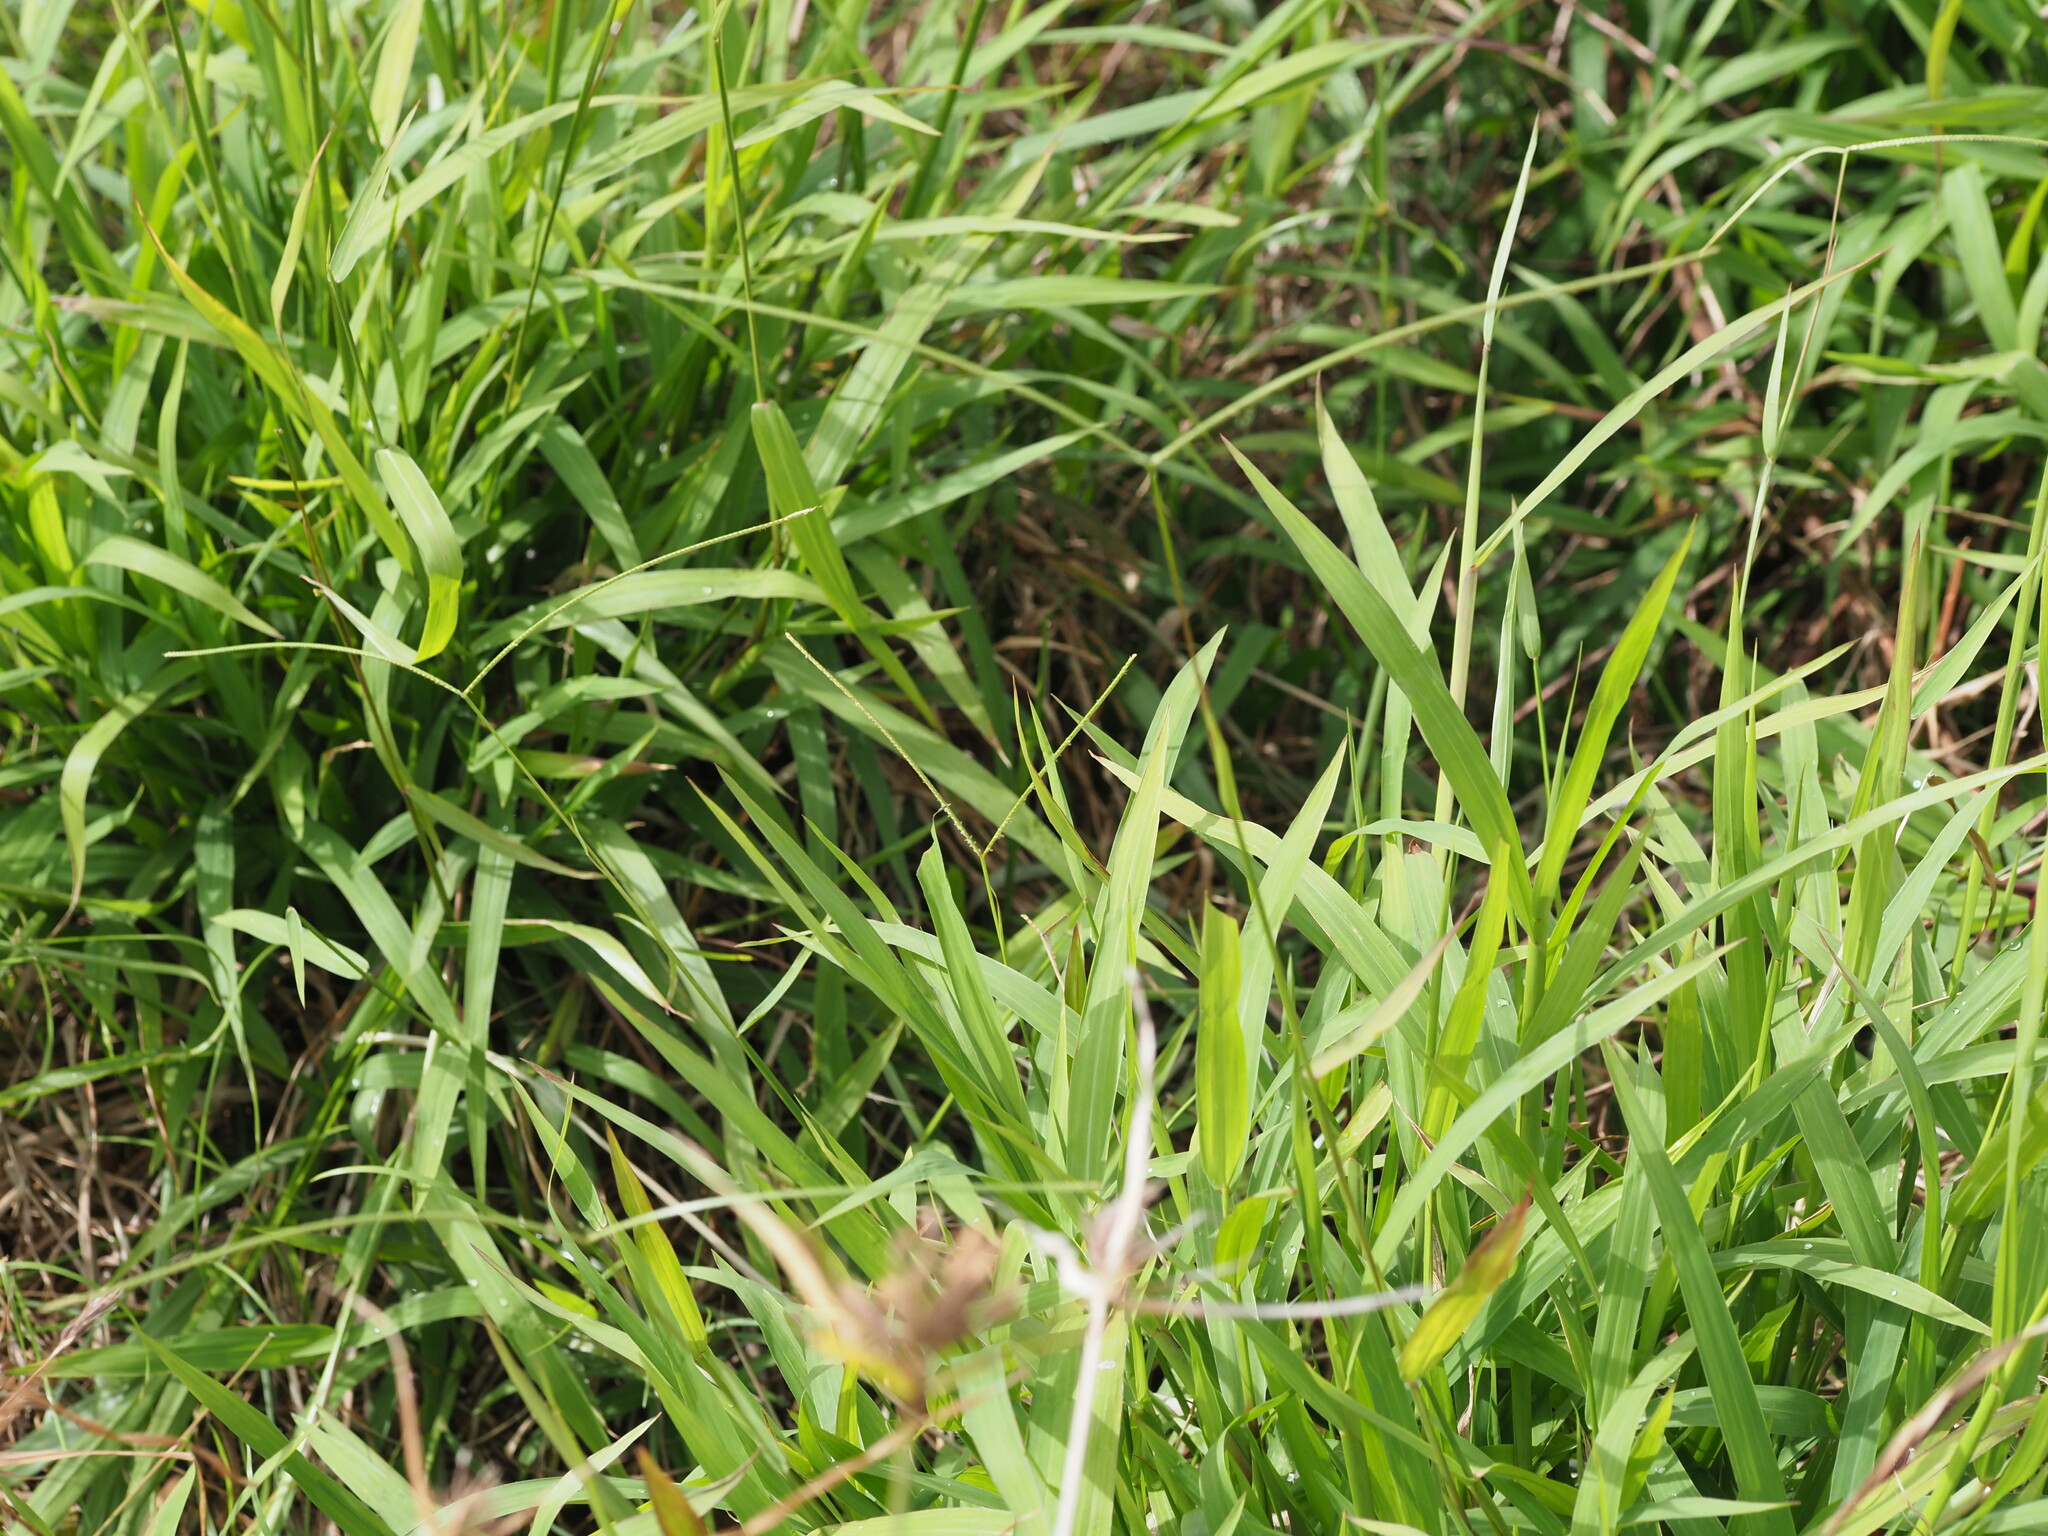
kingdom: Plantae
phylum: Tracheophyta
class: Liliopsida
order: Poales
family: Poaceae
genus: Paspalum
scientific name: Paspalum conjugatum
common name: Hilograss
